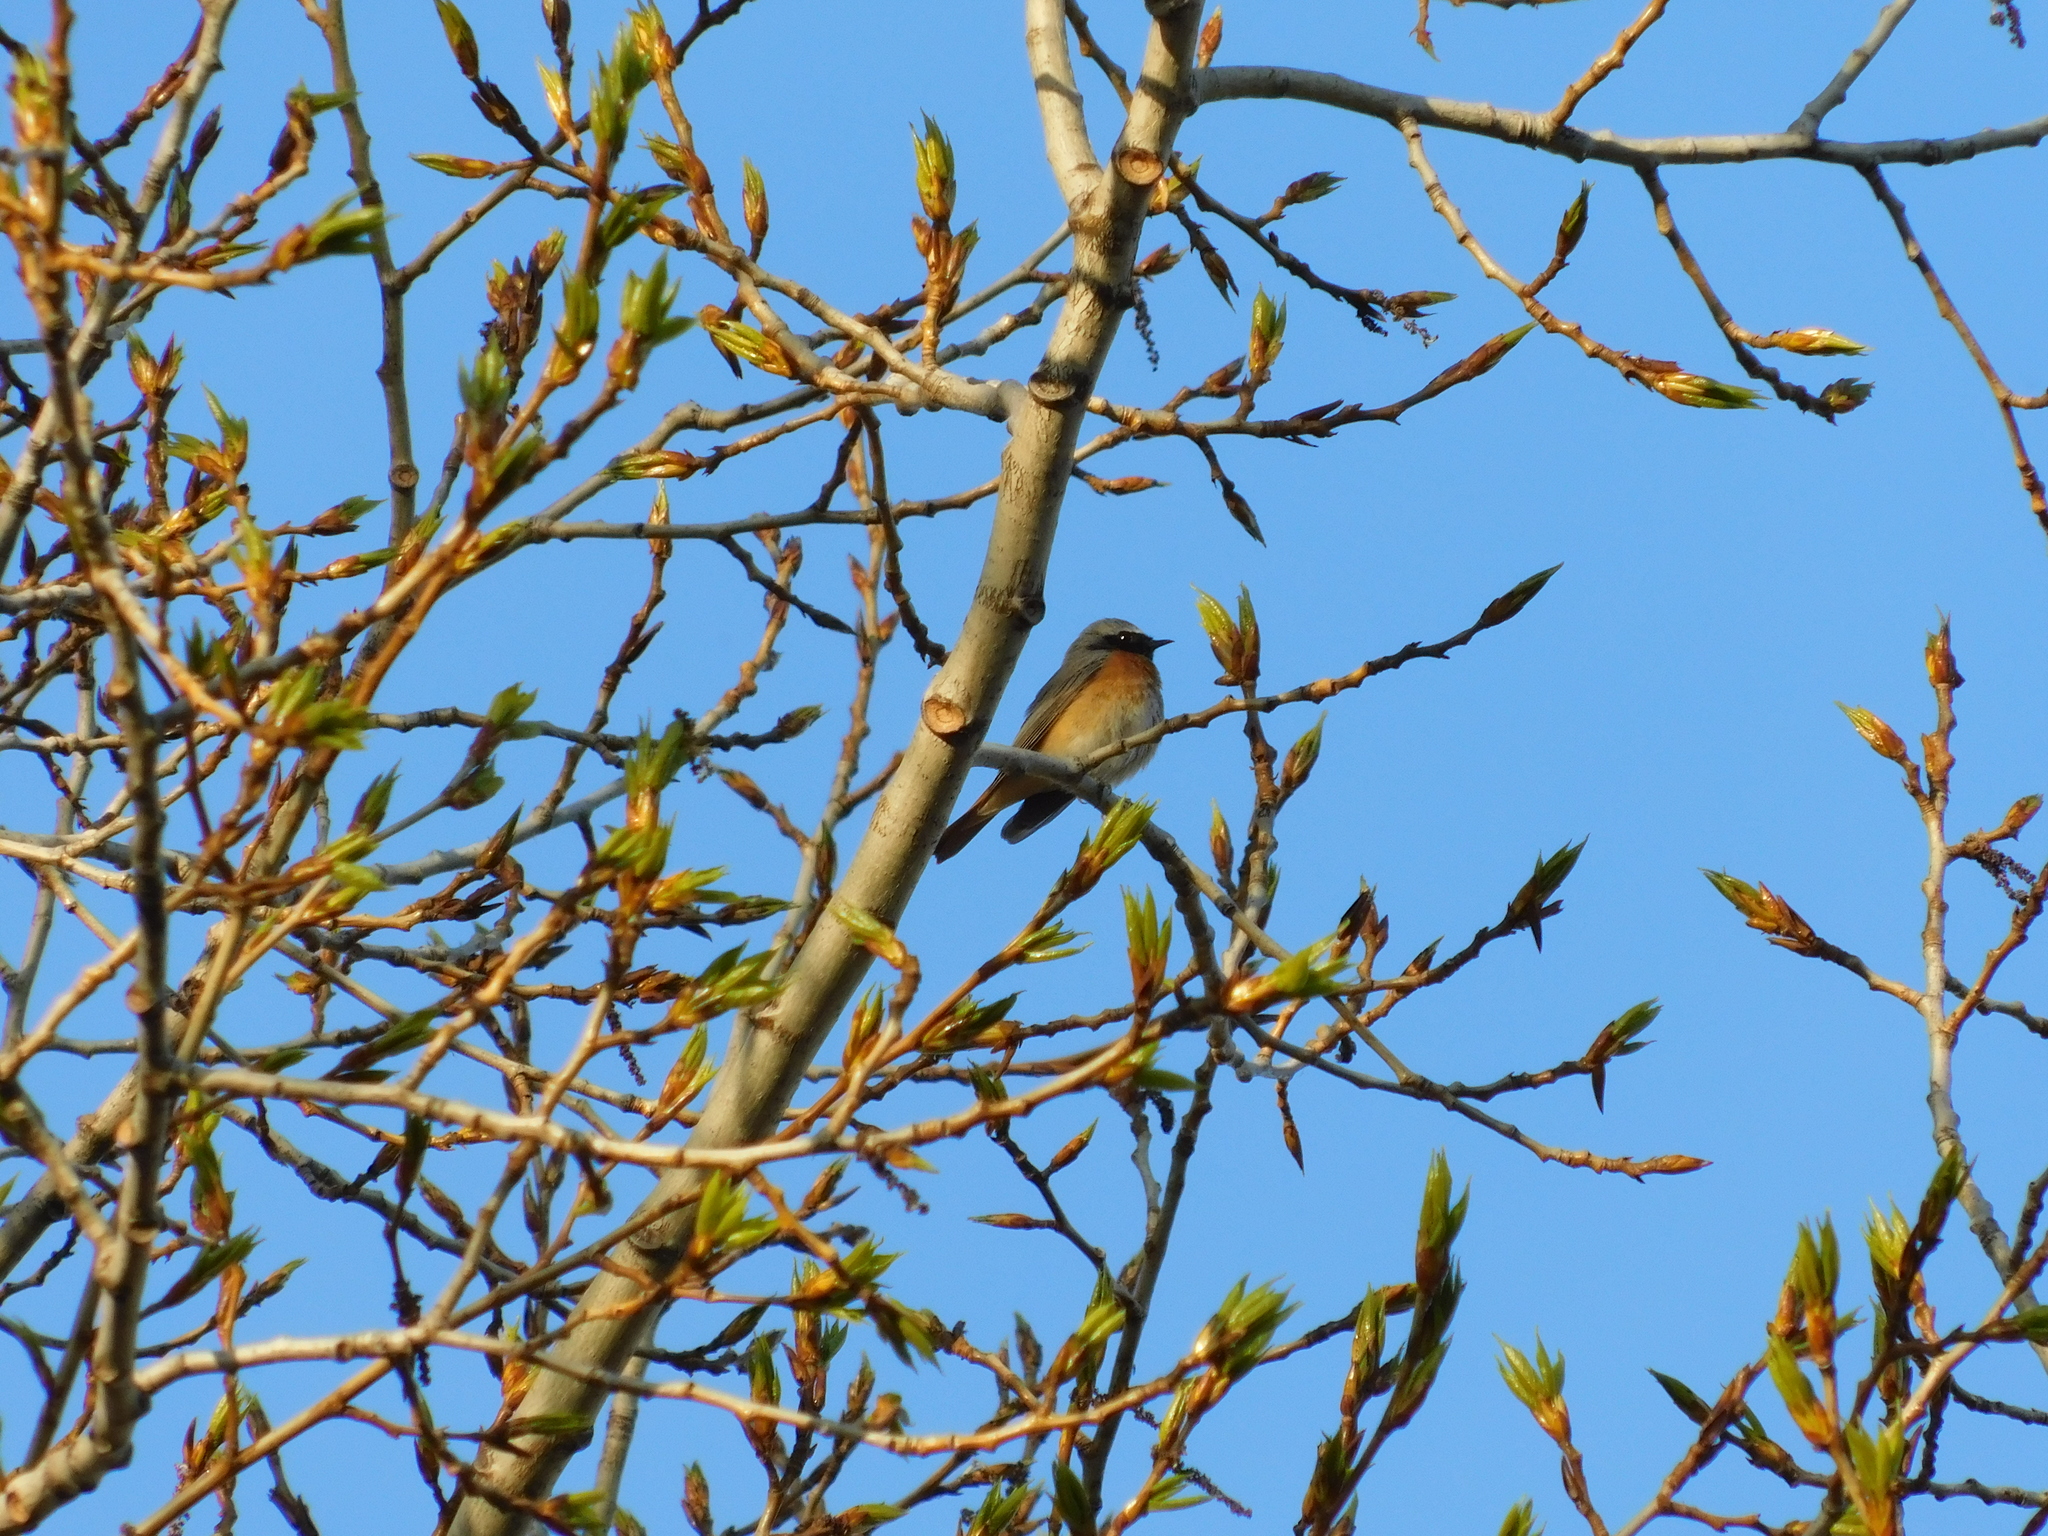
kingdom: Animalia
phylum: Chordata
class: Aves
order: Passeriformes
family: Muscicapidae
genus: Phoenicurus
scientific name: Phoenicurus phoenicurus
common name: Common redstart
